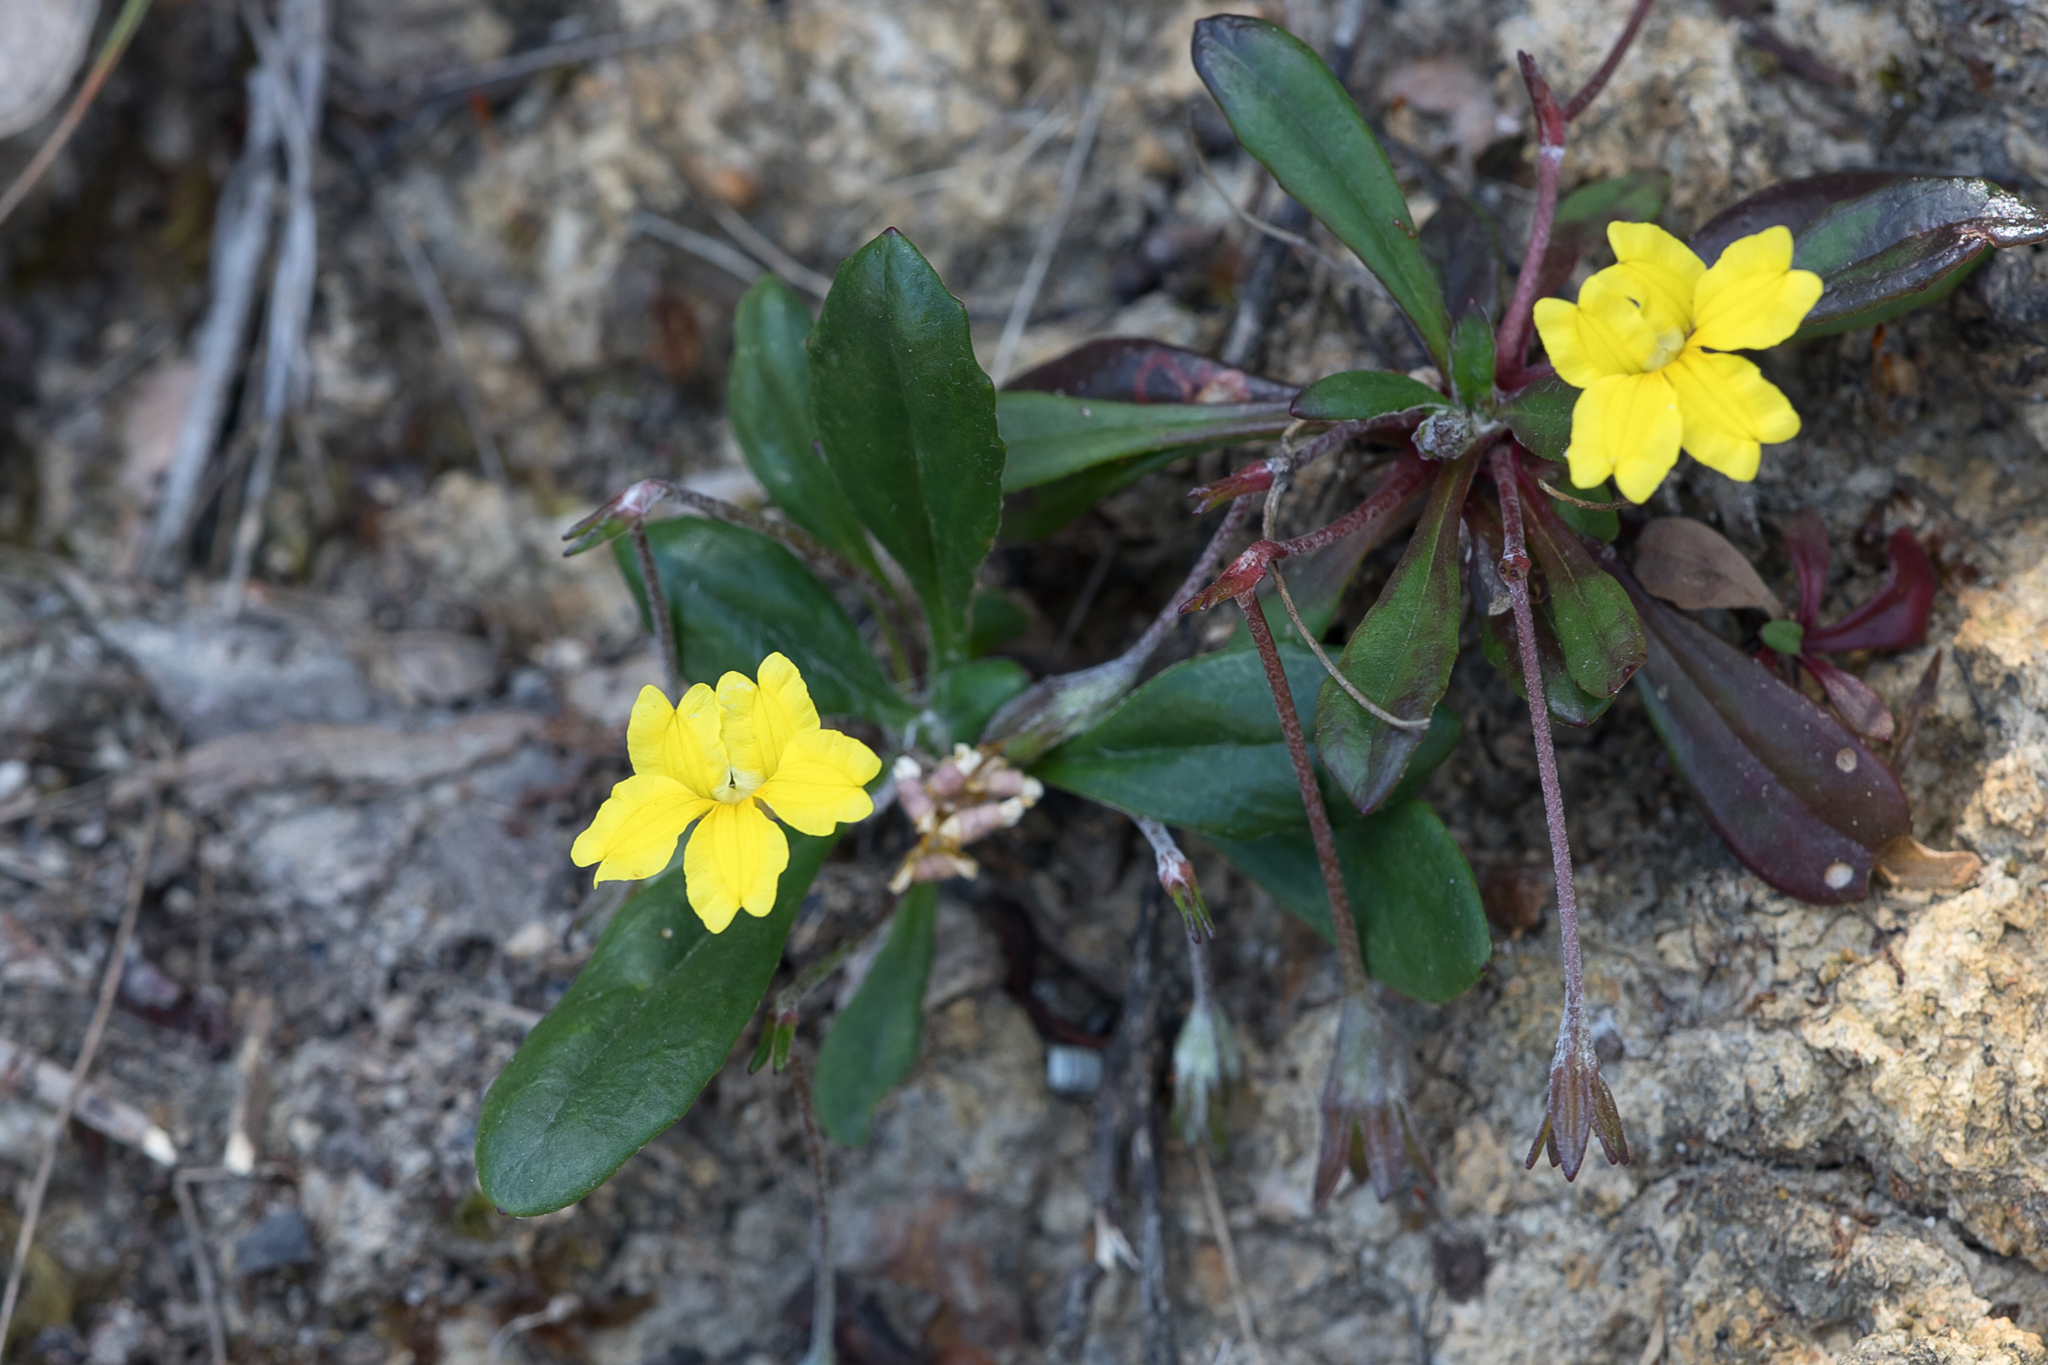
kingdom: Plantae
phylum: Tracheophyta
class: Magnoliopsida
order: Asterales
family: Goodeniaceae
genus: Goodenia
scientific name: Goodenia blackiana
